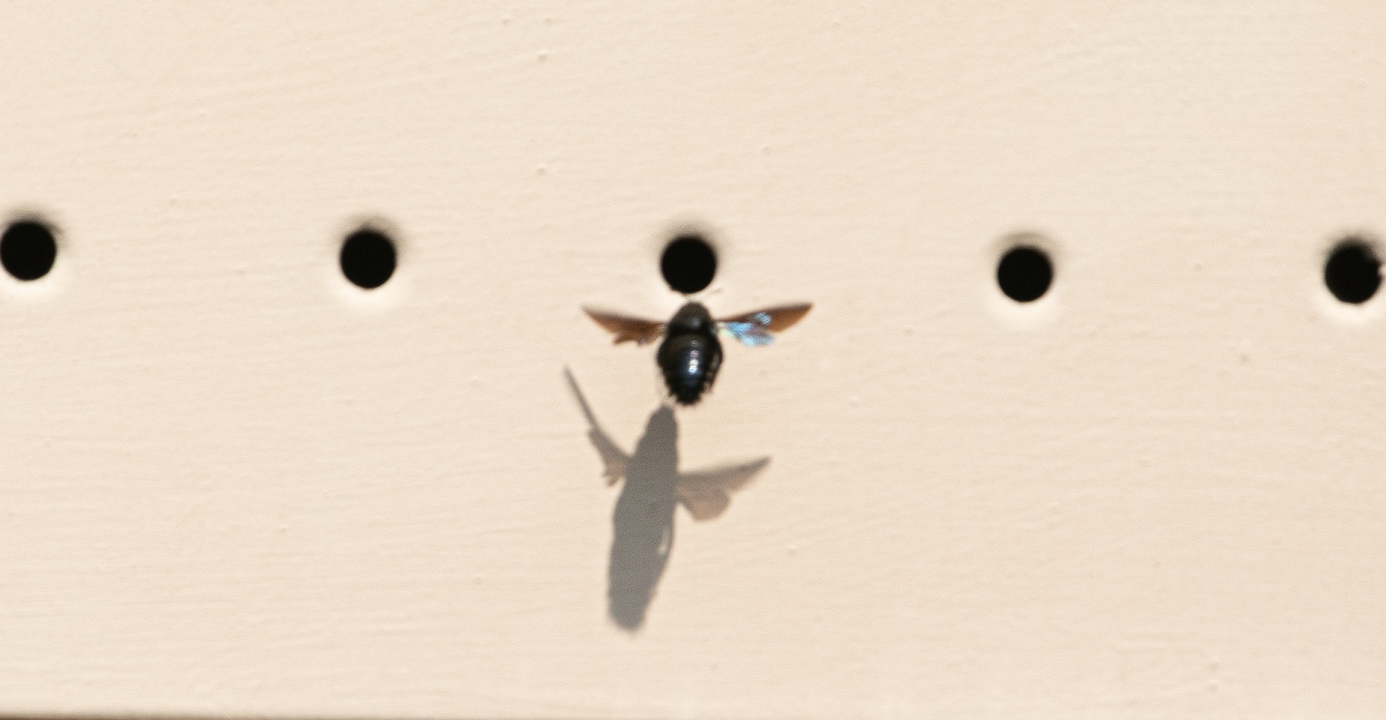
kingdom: Animalia
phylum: Arthropoda
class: Insecta
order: Hymenoptera
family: Apidae
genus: Xylocopa
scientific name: Xylocopa violacea
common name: Violet carpenter bee
